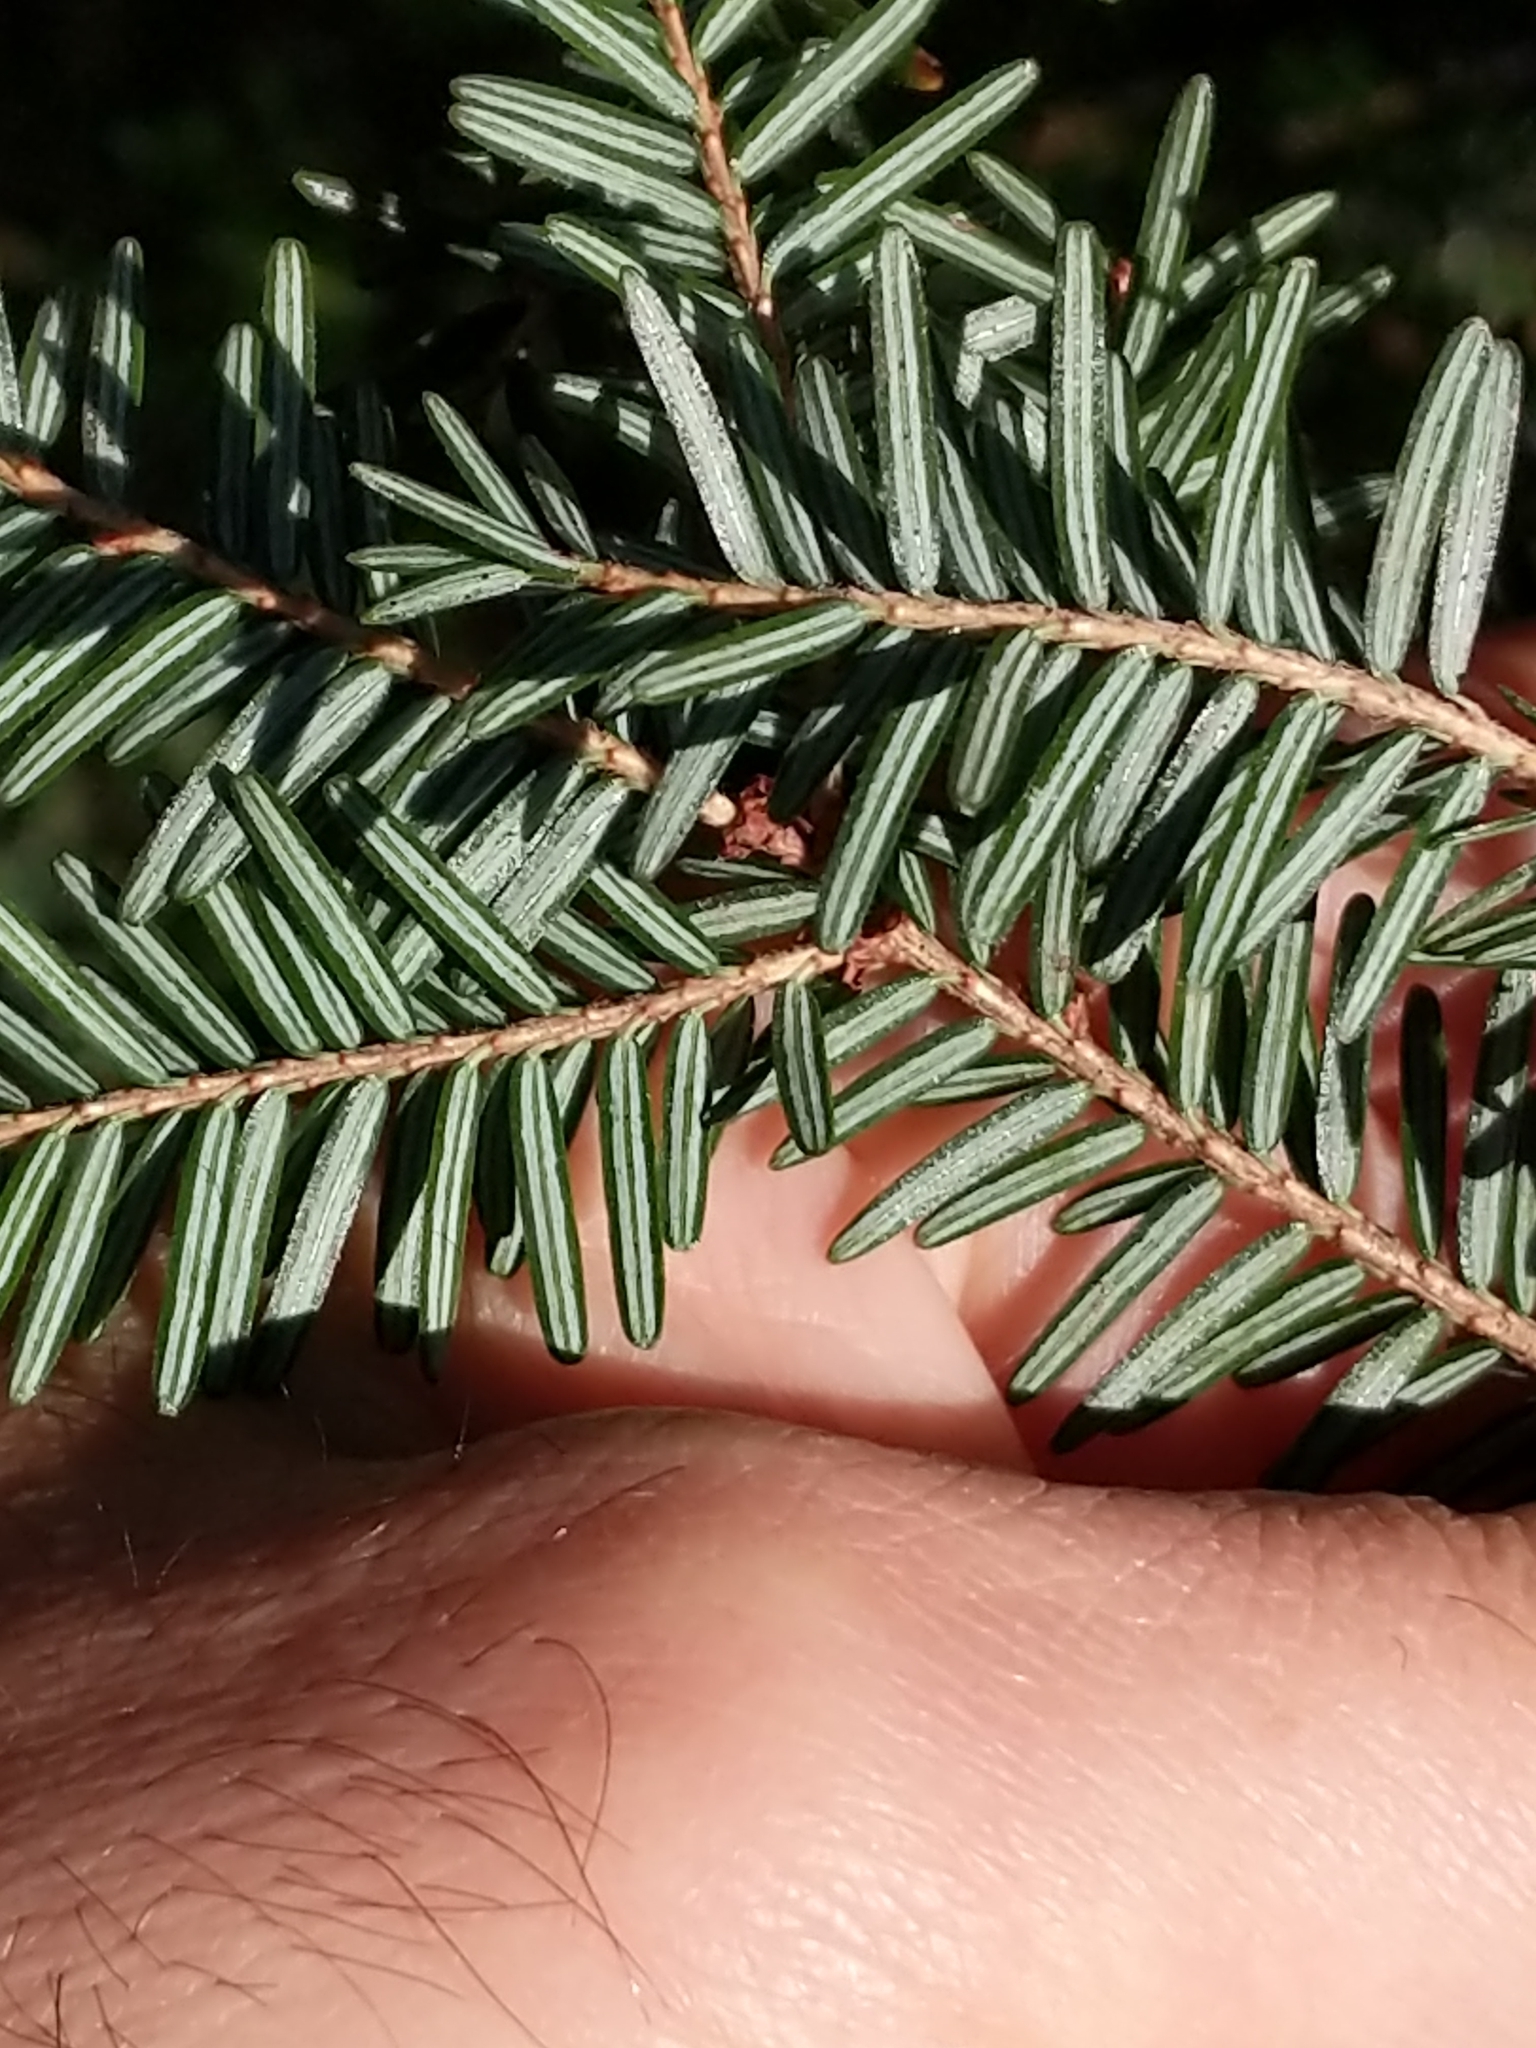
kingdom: Plantae
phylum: Tracheophyta
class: Pinopsida
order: Pinales
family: Pinaceae
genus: Tsuga
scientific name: Tsuga canadensis
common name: Eastern hemlock
